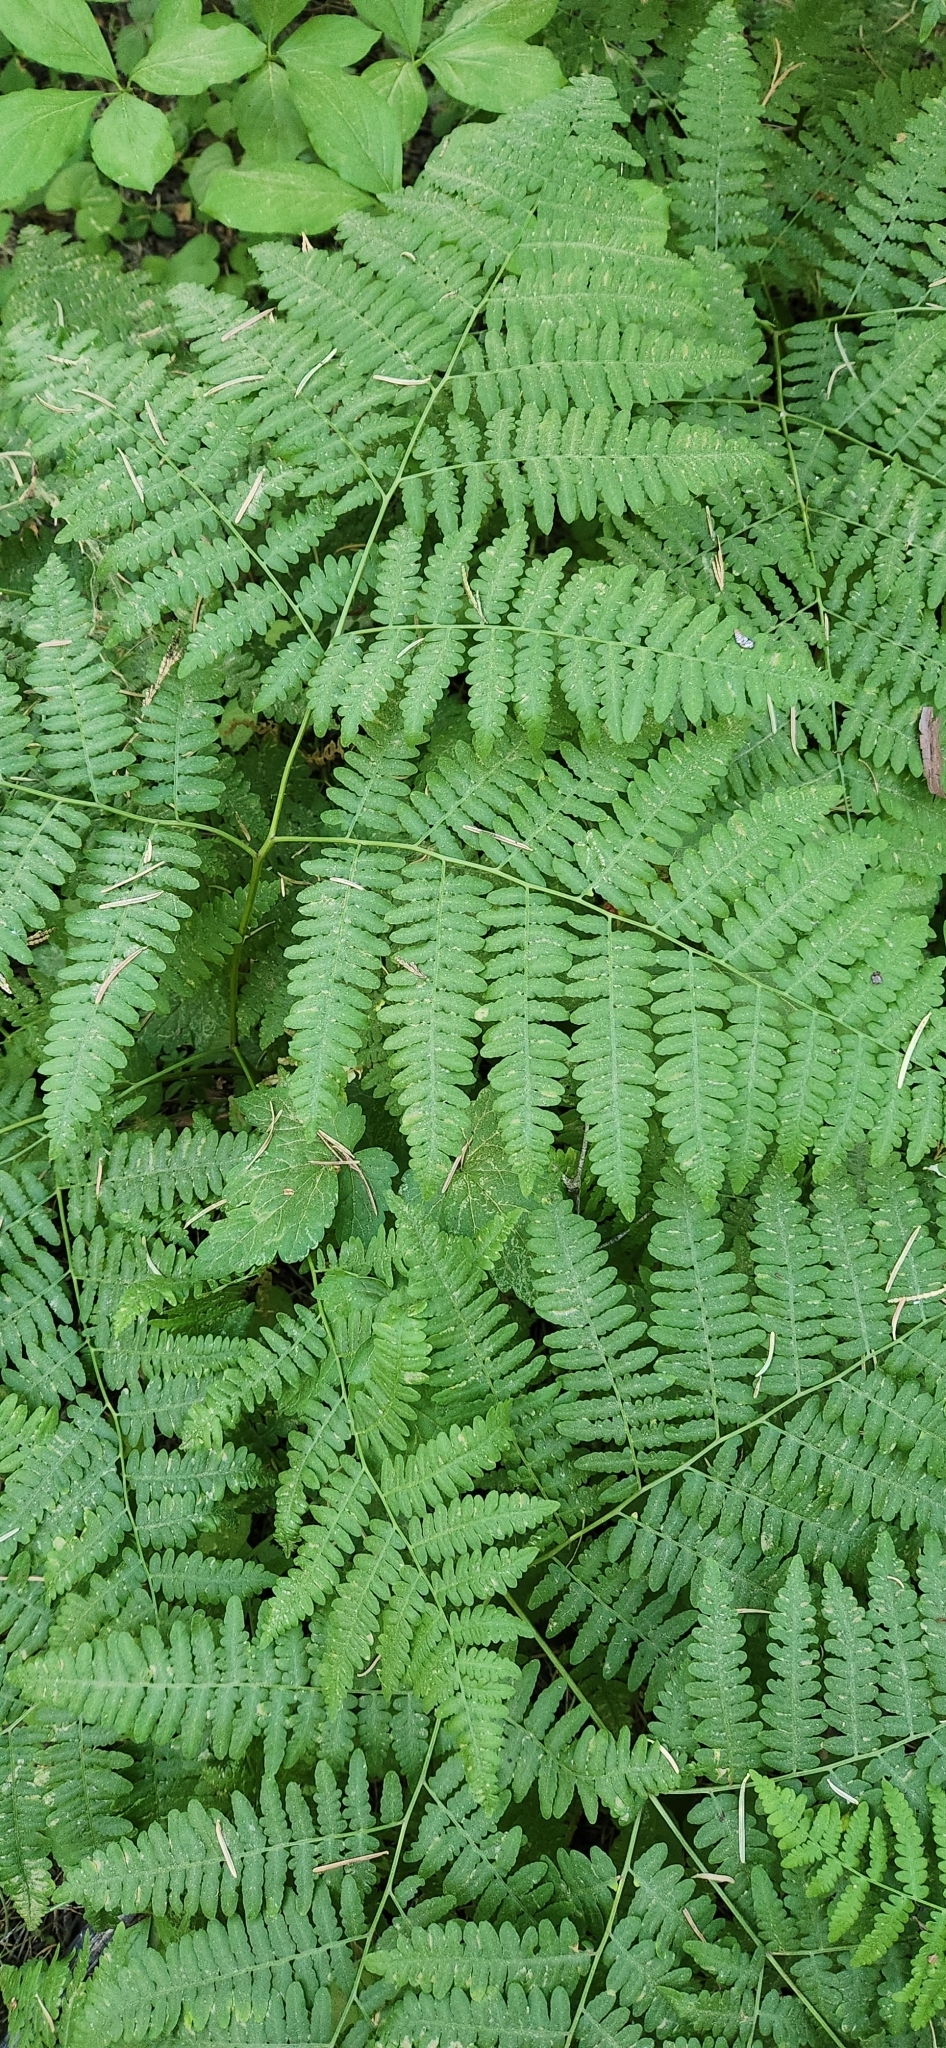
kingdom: Plantae
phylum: Tracheophyta
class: Polypodiopsida
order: Polypodiales
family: Dennstaedtiaceae
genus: Pteridium
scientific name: Pteridium aquilinum
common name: Bracken
